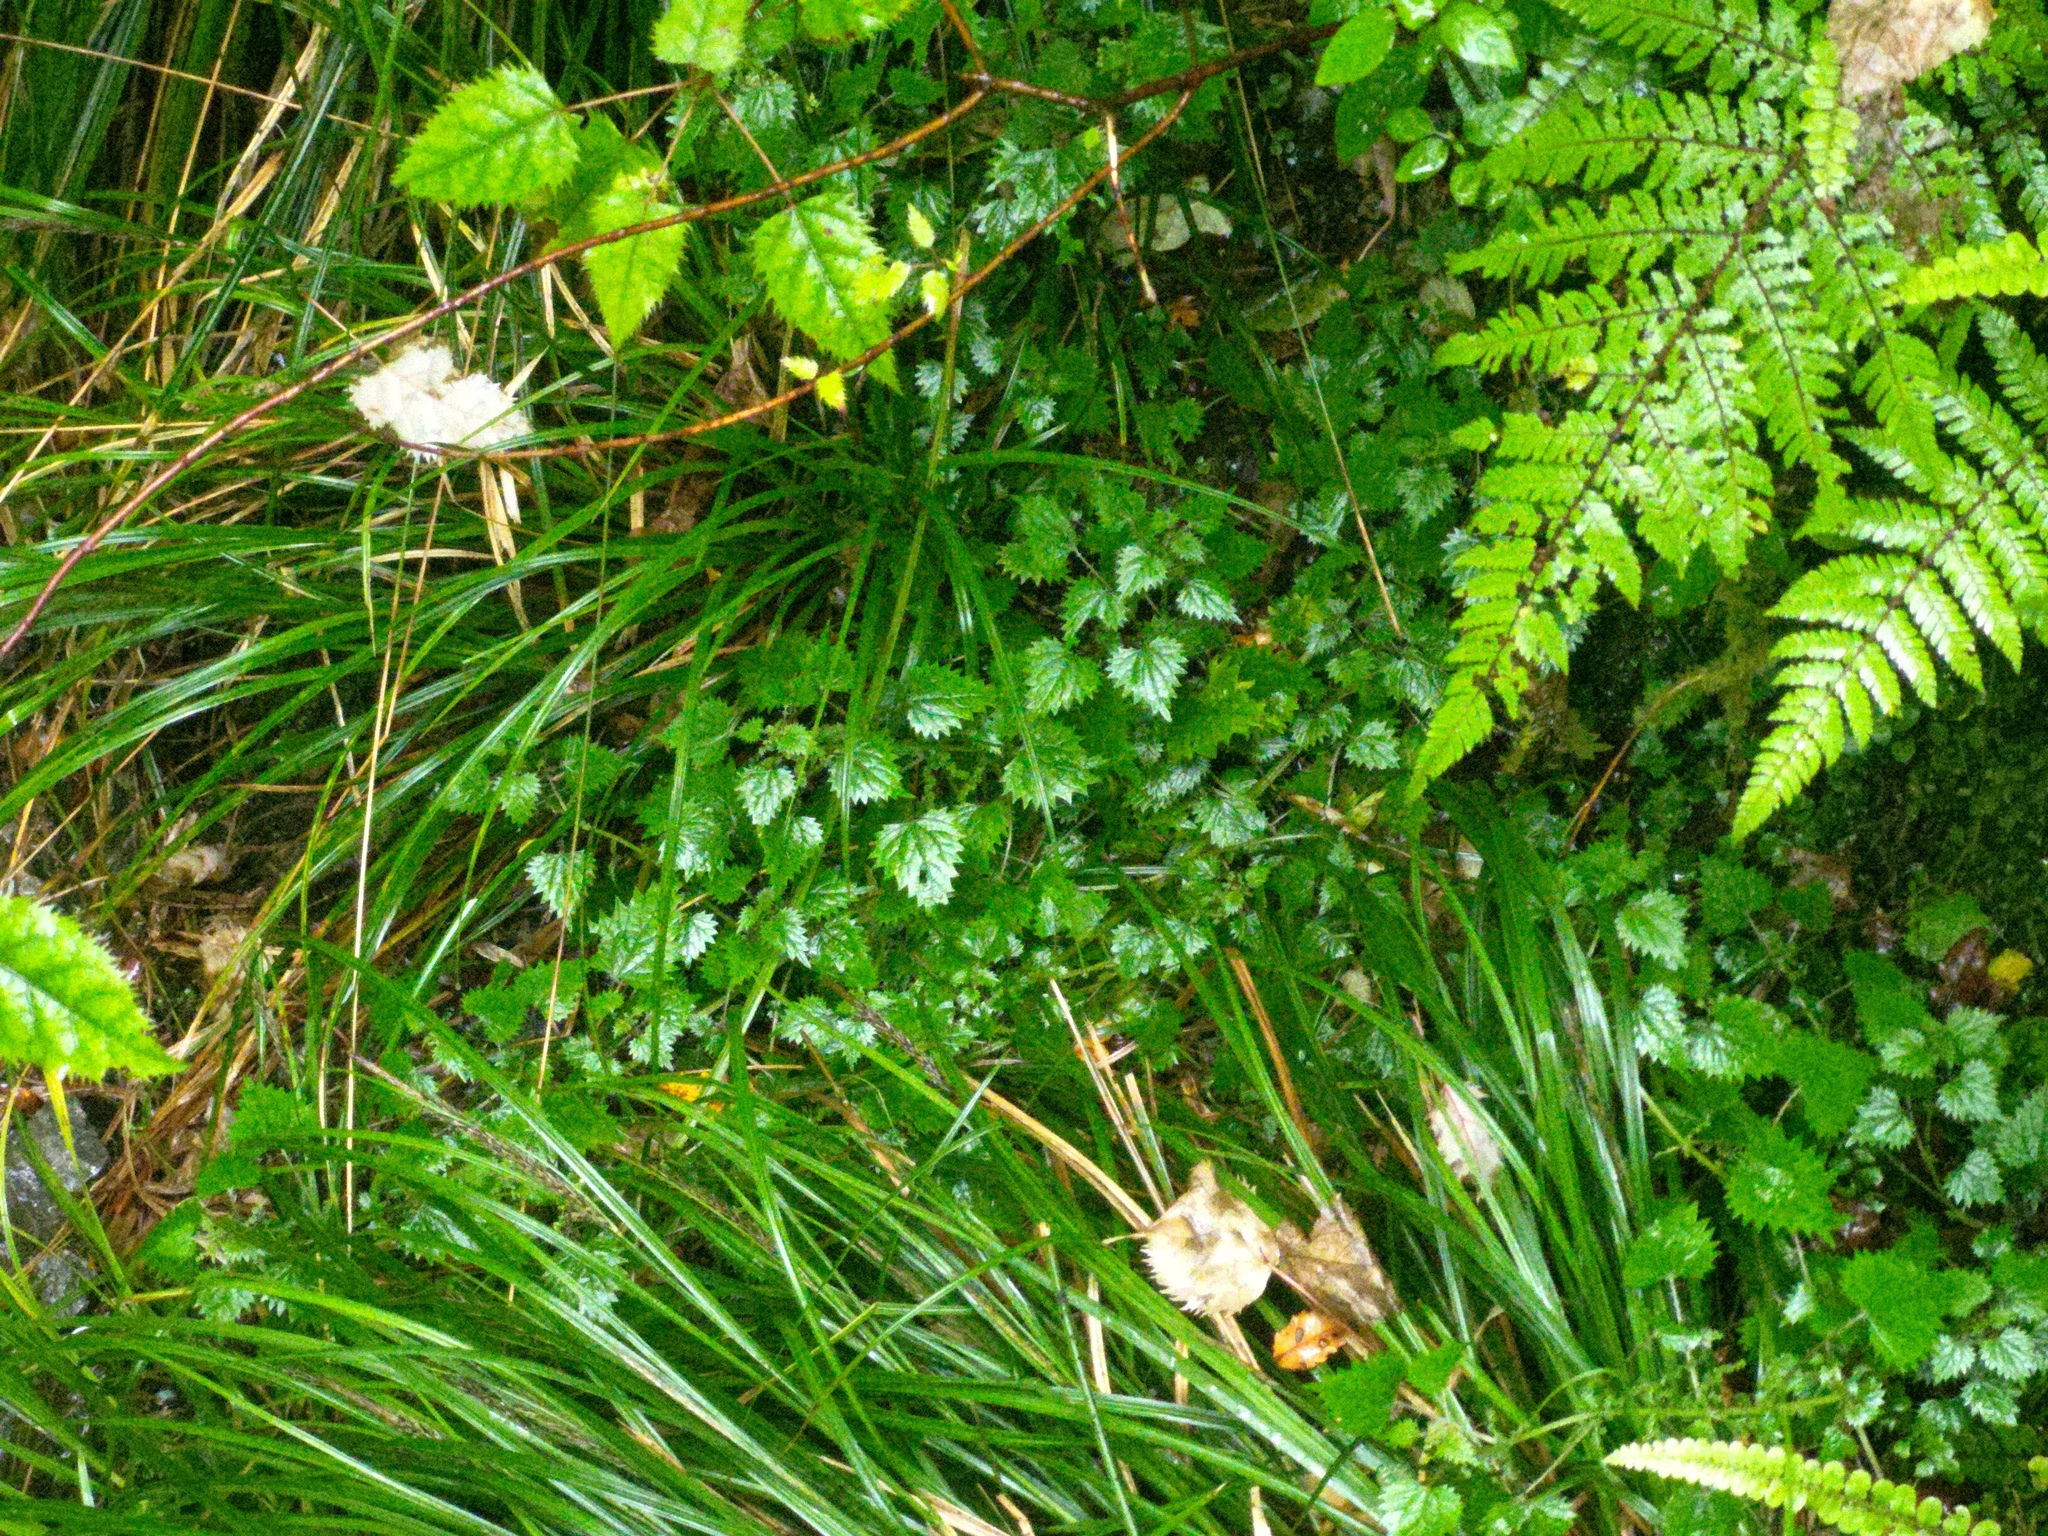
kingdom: Plantae
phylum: Tracheophyta
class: Magnoliopsida
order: Rosales
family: Urticaceae
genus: Urtica
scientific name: Urtica sykesii
